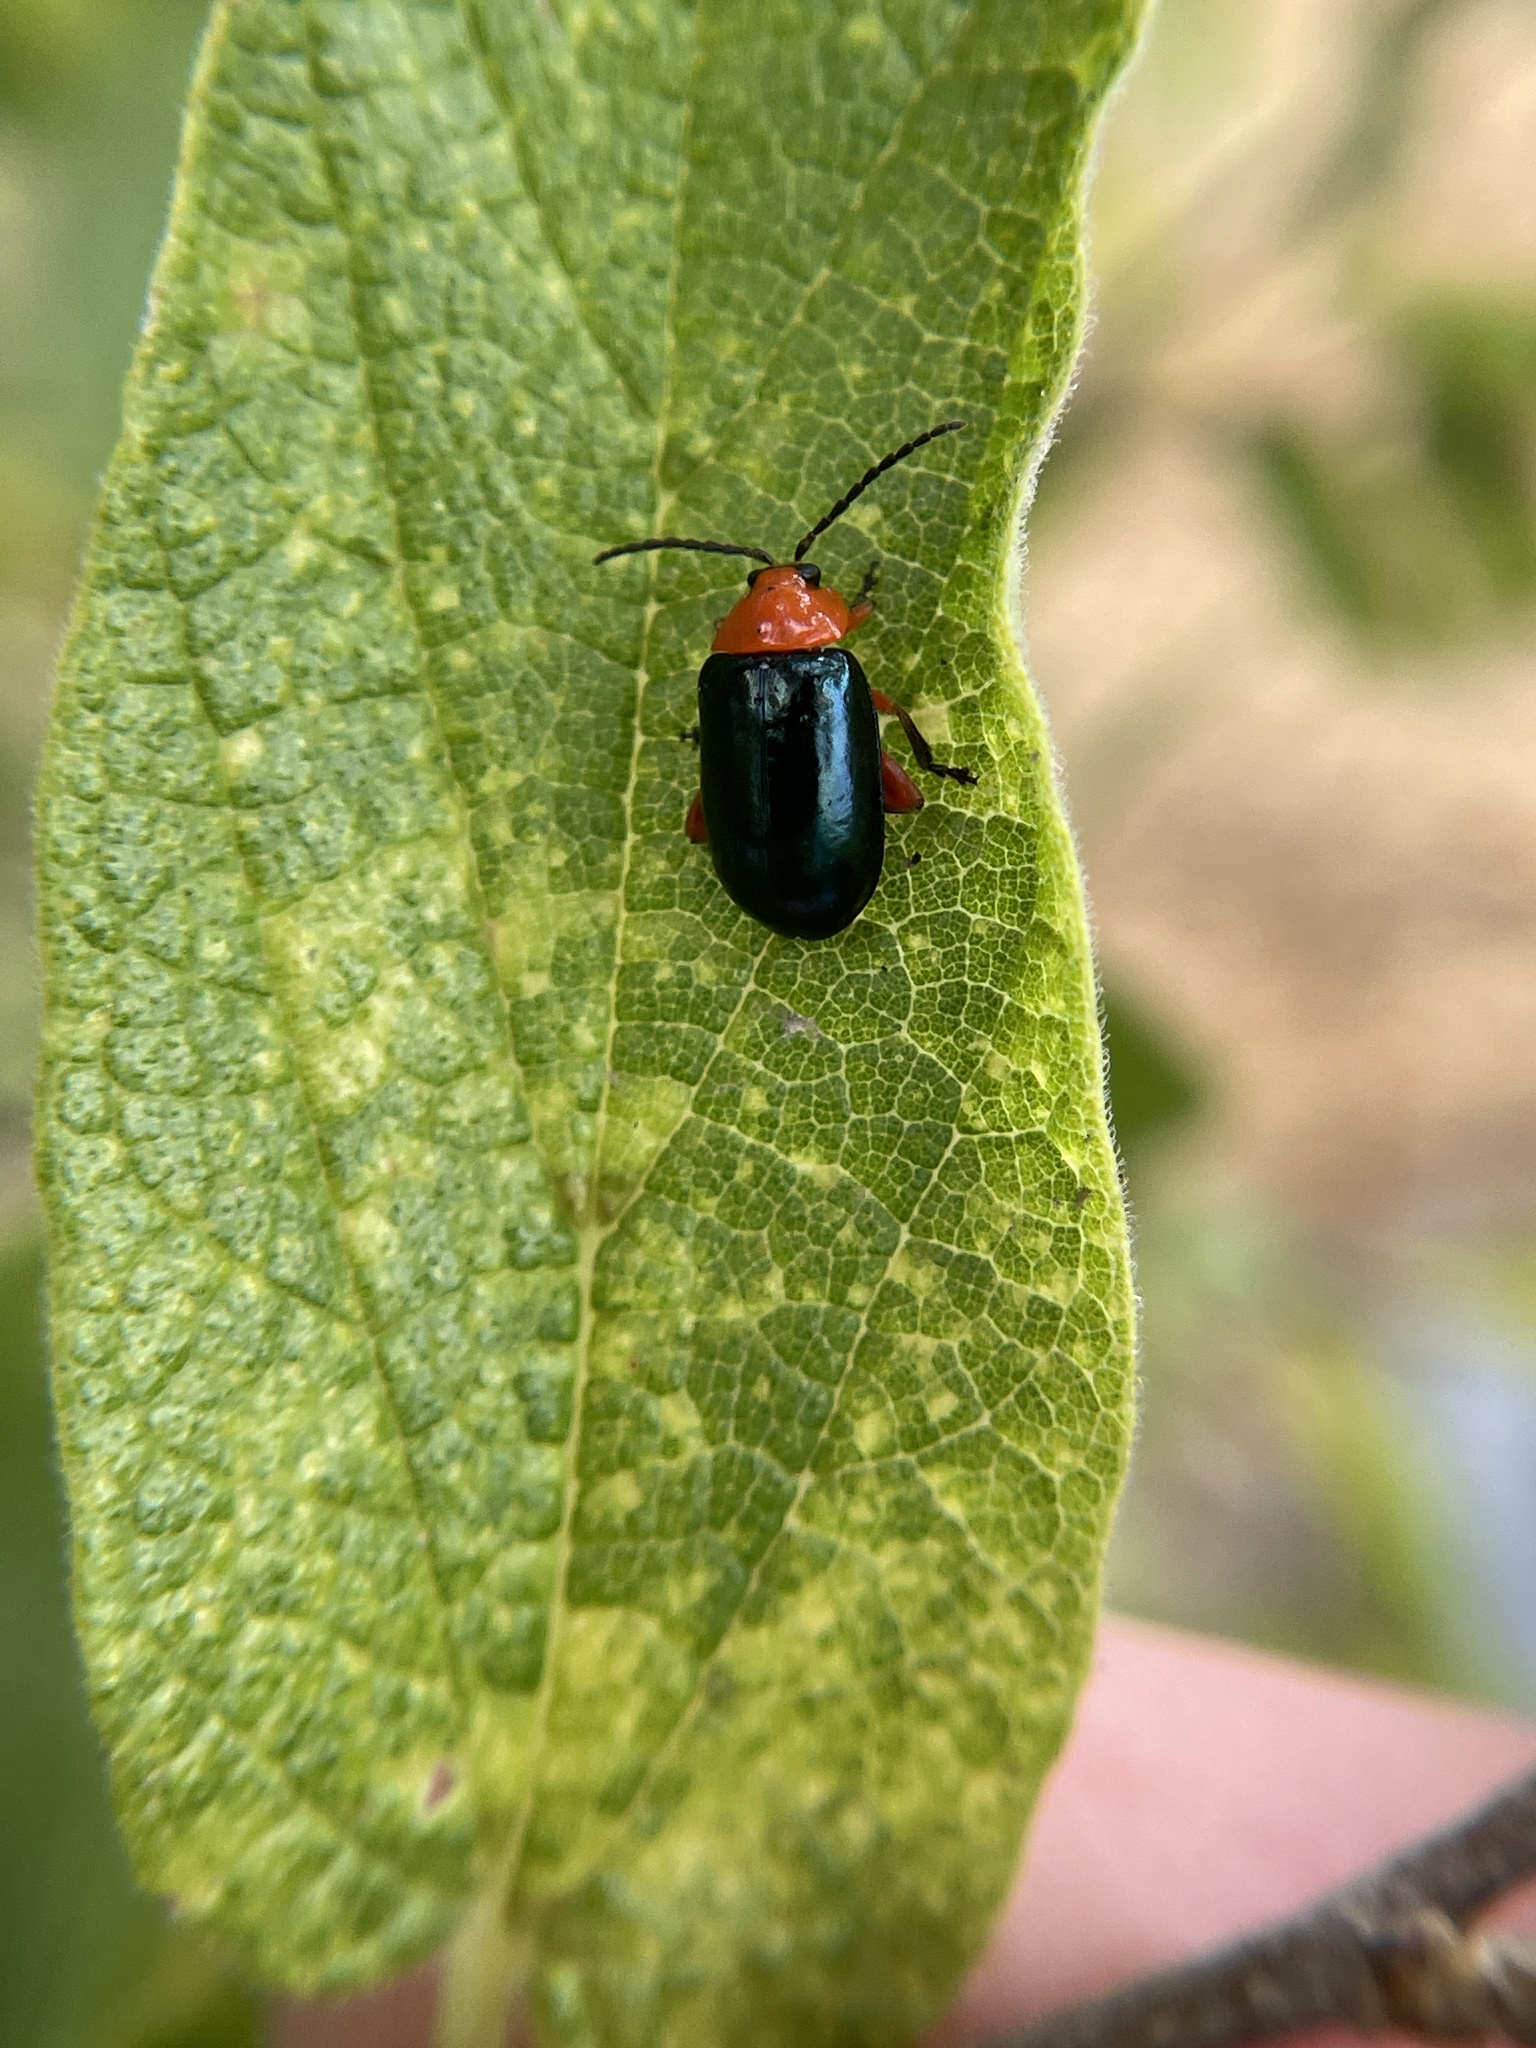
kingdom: Animalia
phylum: Arthropoda
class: Insecta
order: Coleoptera
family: Chrysomelidae
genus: Asphaera
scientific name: Asphaera lustrans
